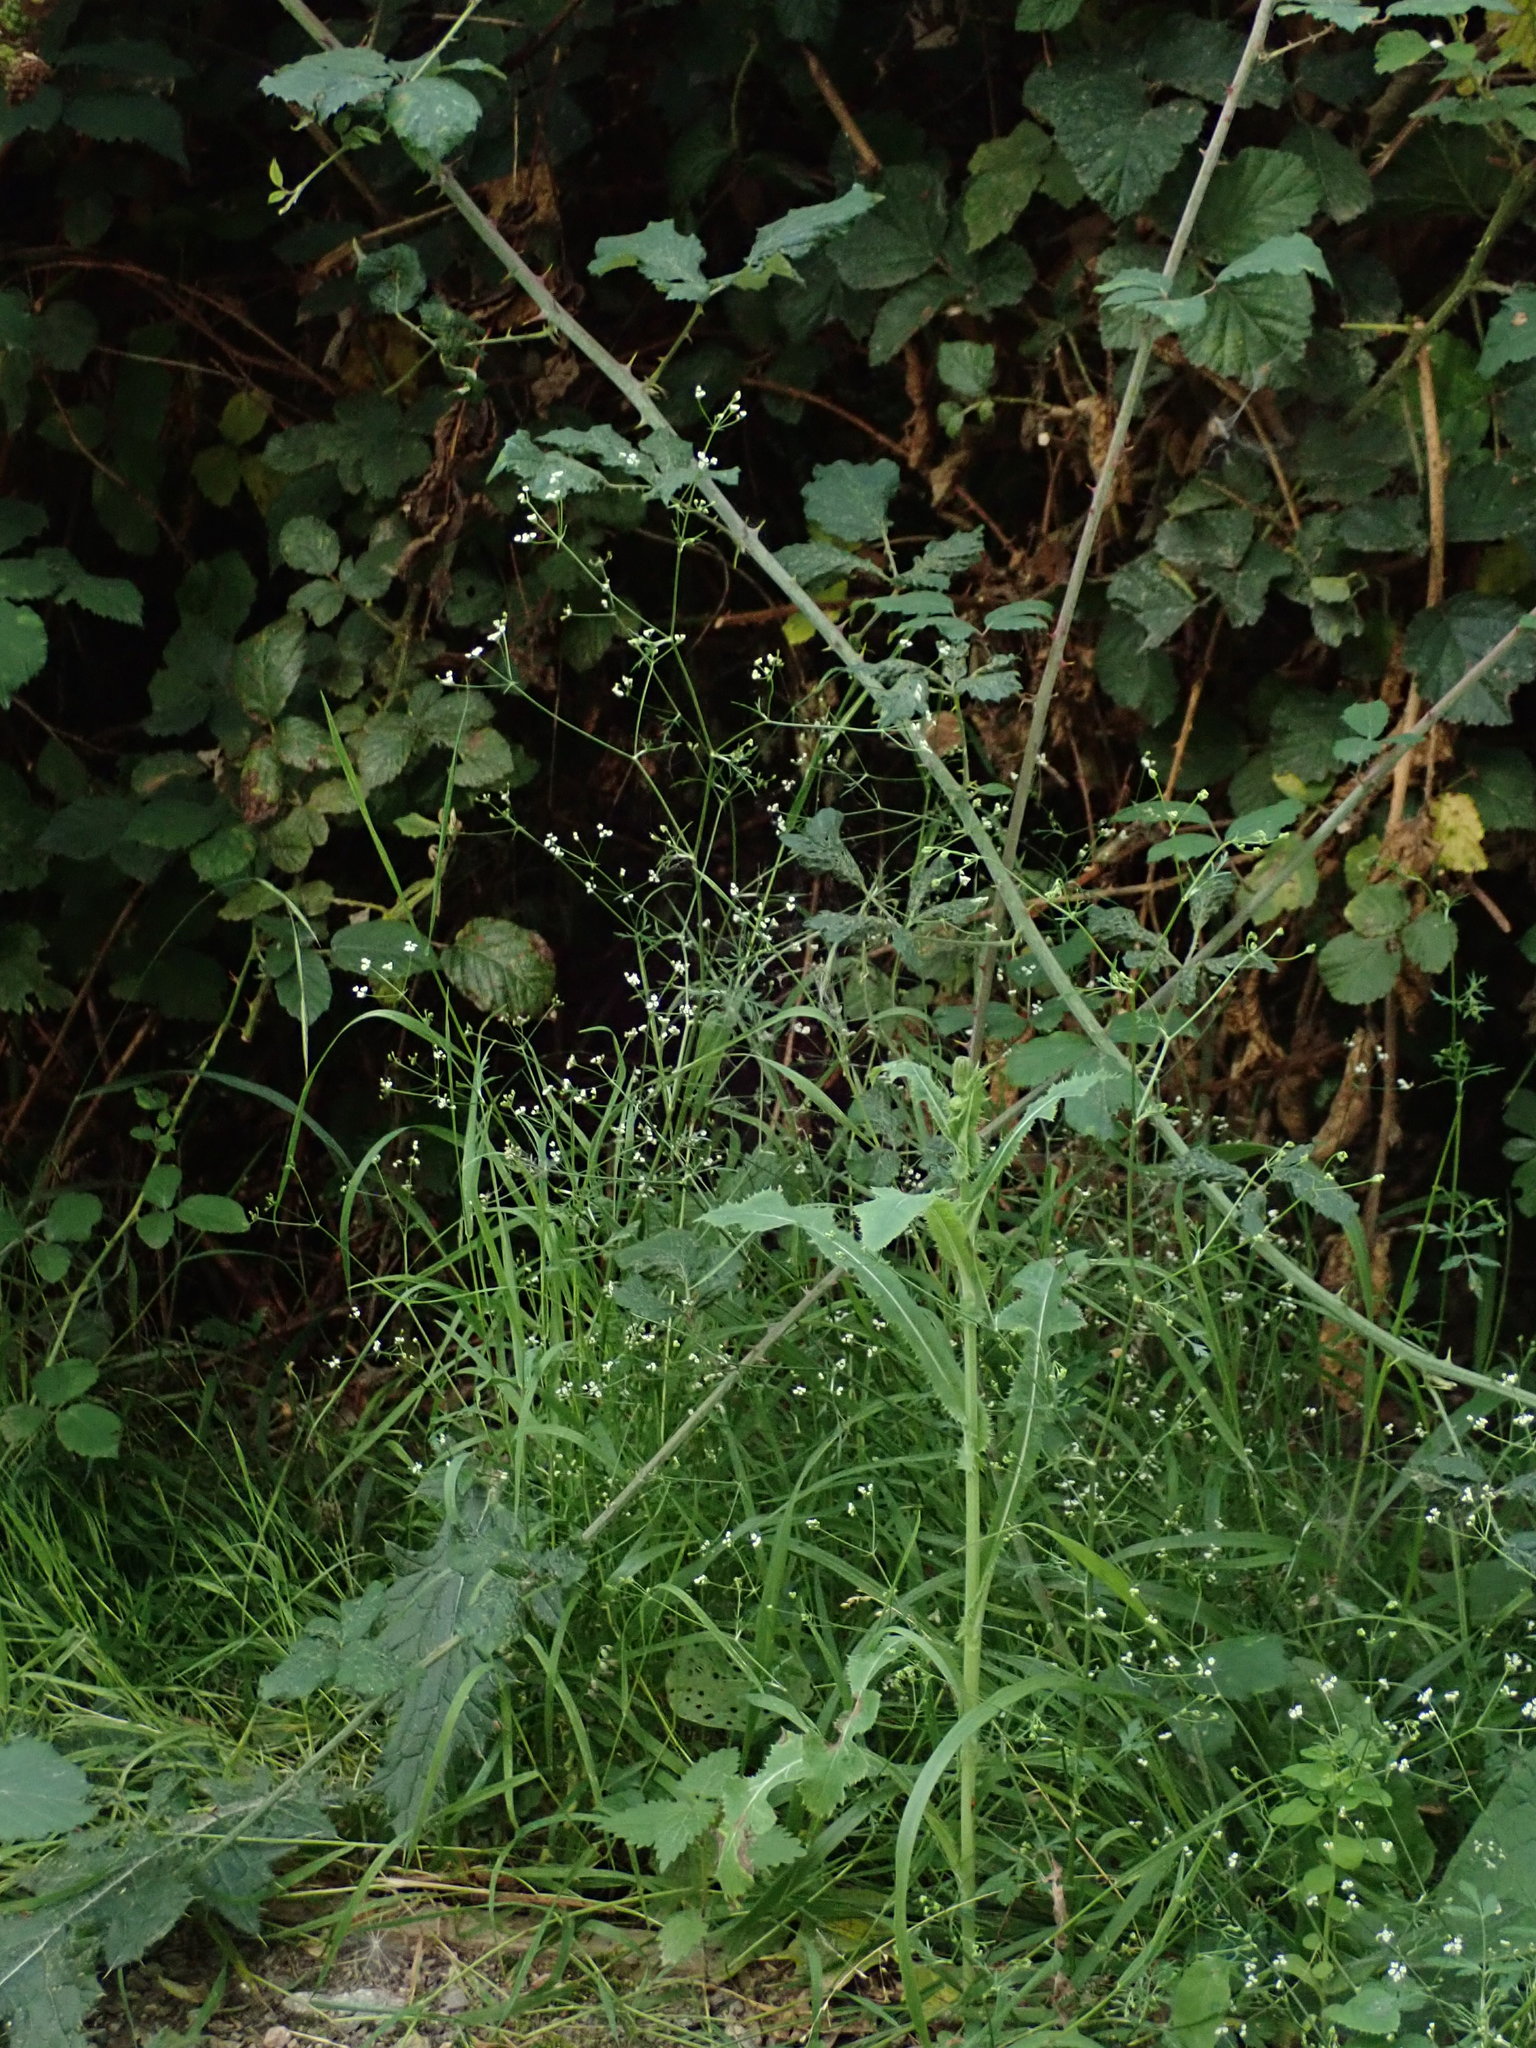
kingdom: Plantae
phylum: Tracheophyta
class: Magnoliopsida
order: Apiales
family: Apiaceae
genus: Sison
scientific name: Sison amomum
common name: Stone-parsley
